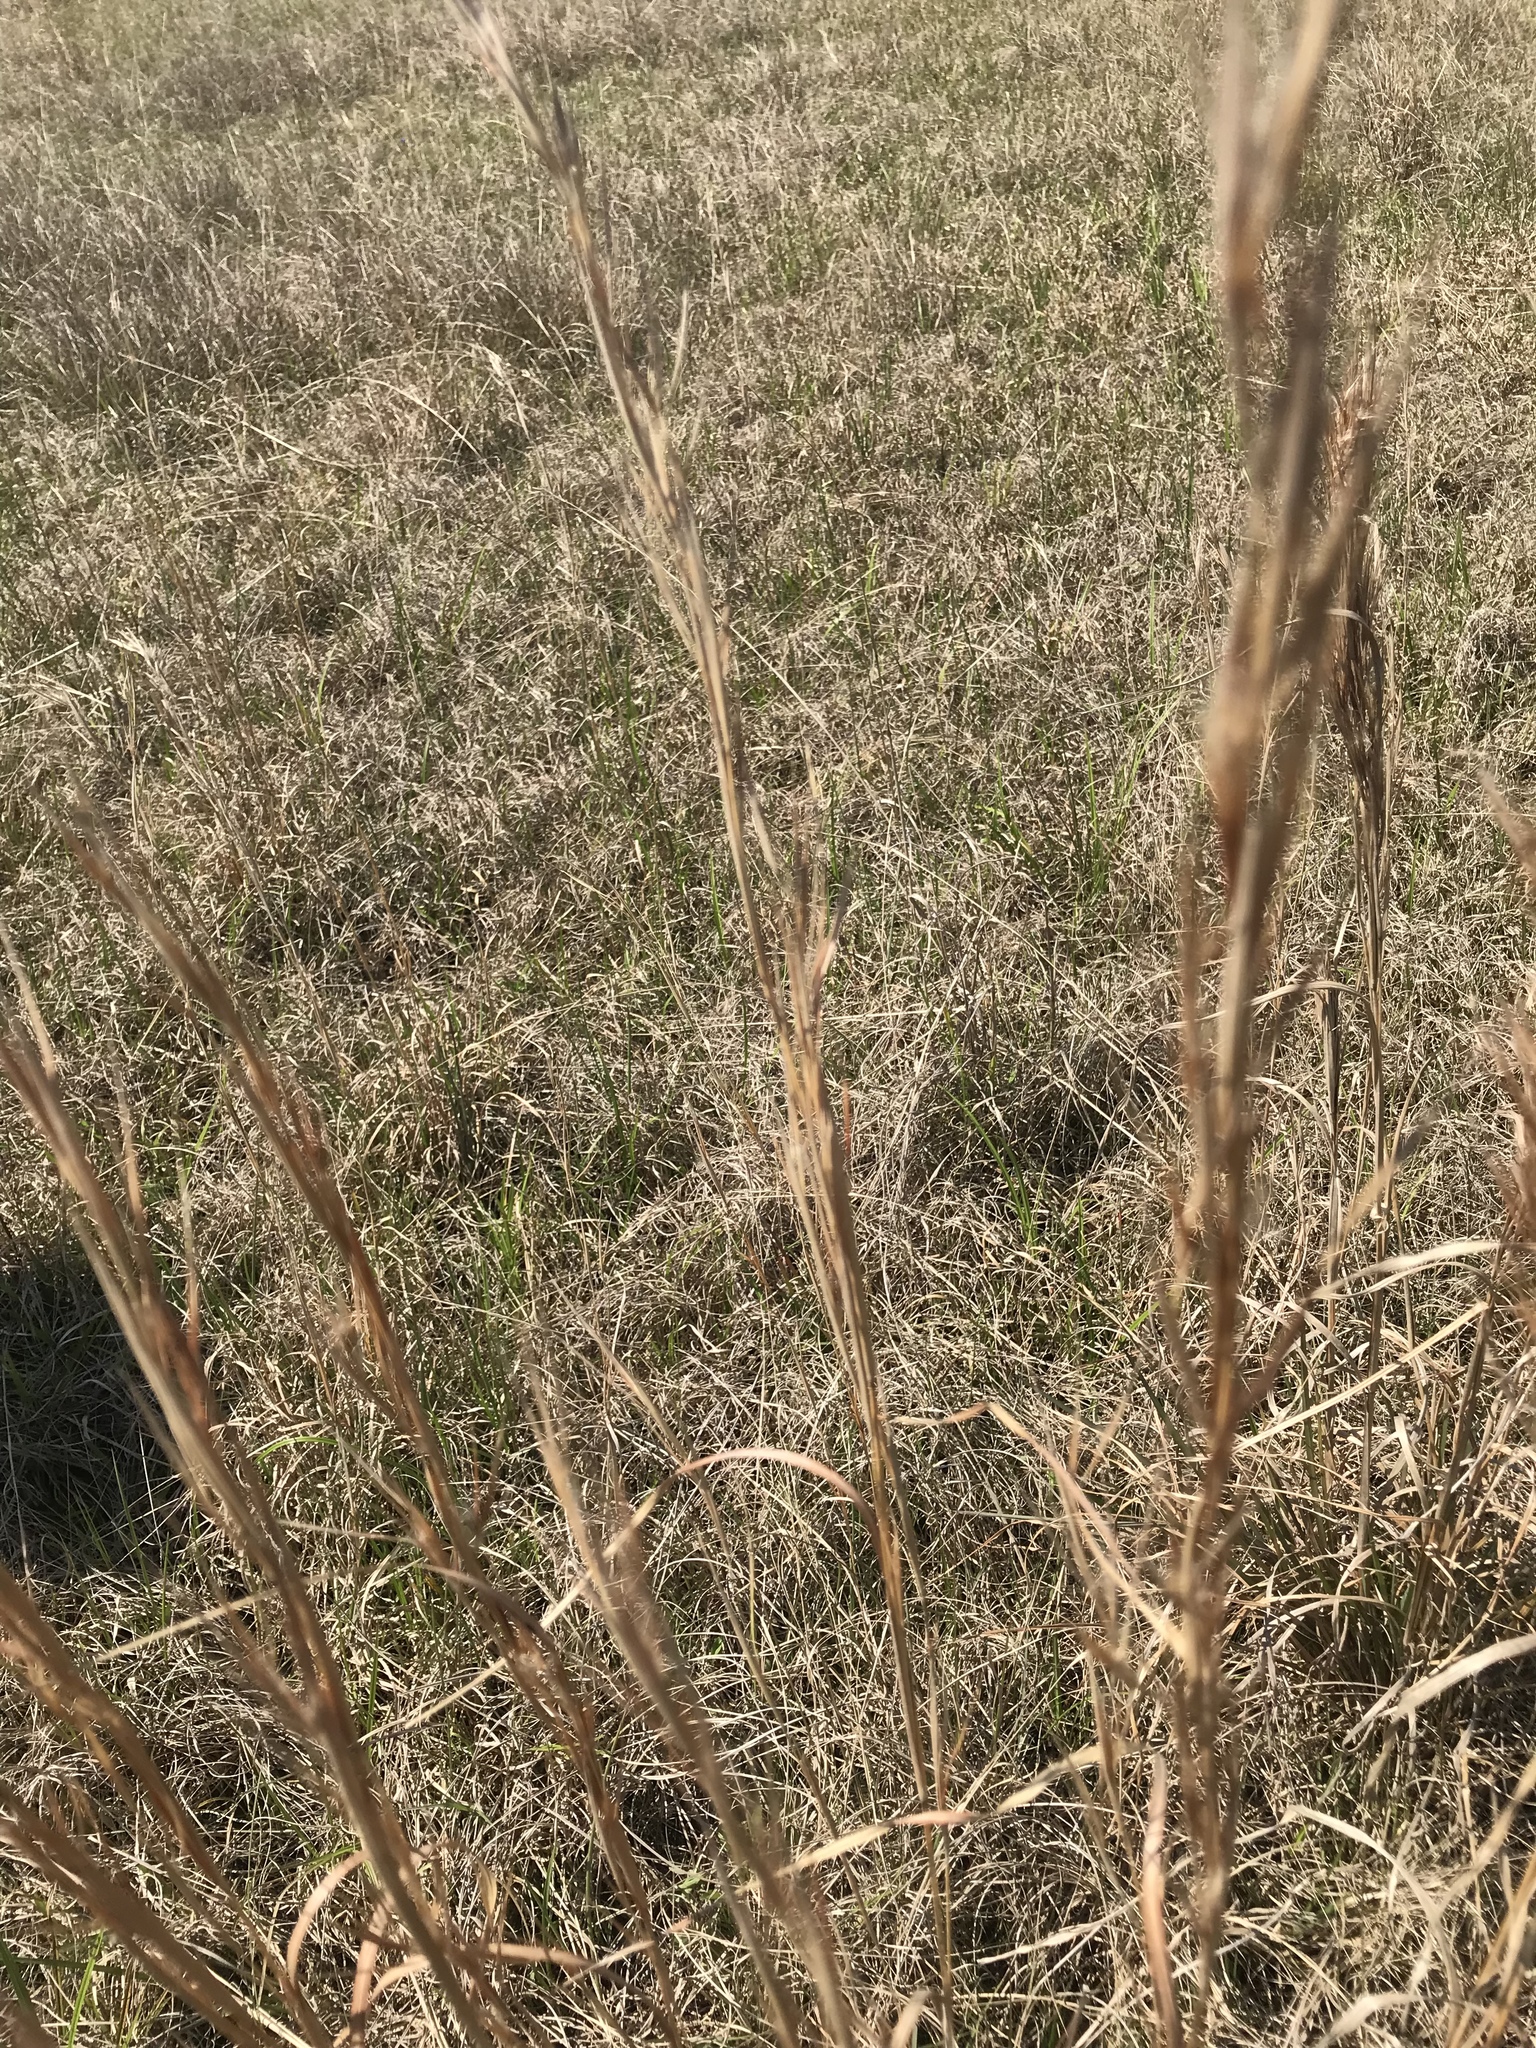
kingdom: Plantae
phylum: Tracheophyta
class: Liliopsida
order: Poales
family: Poaceae
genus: Andropogon
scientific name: Andropogon virginicus
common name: Broomsedge bluestem
